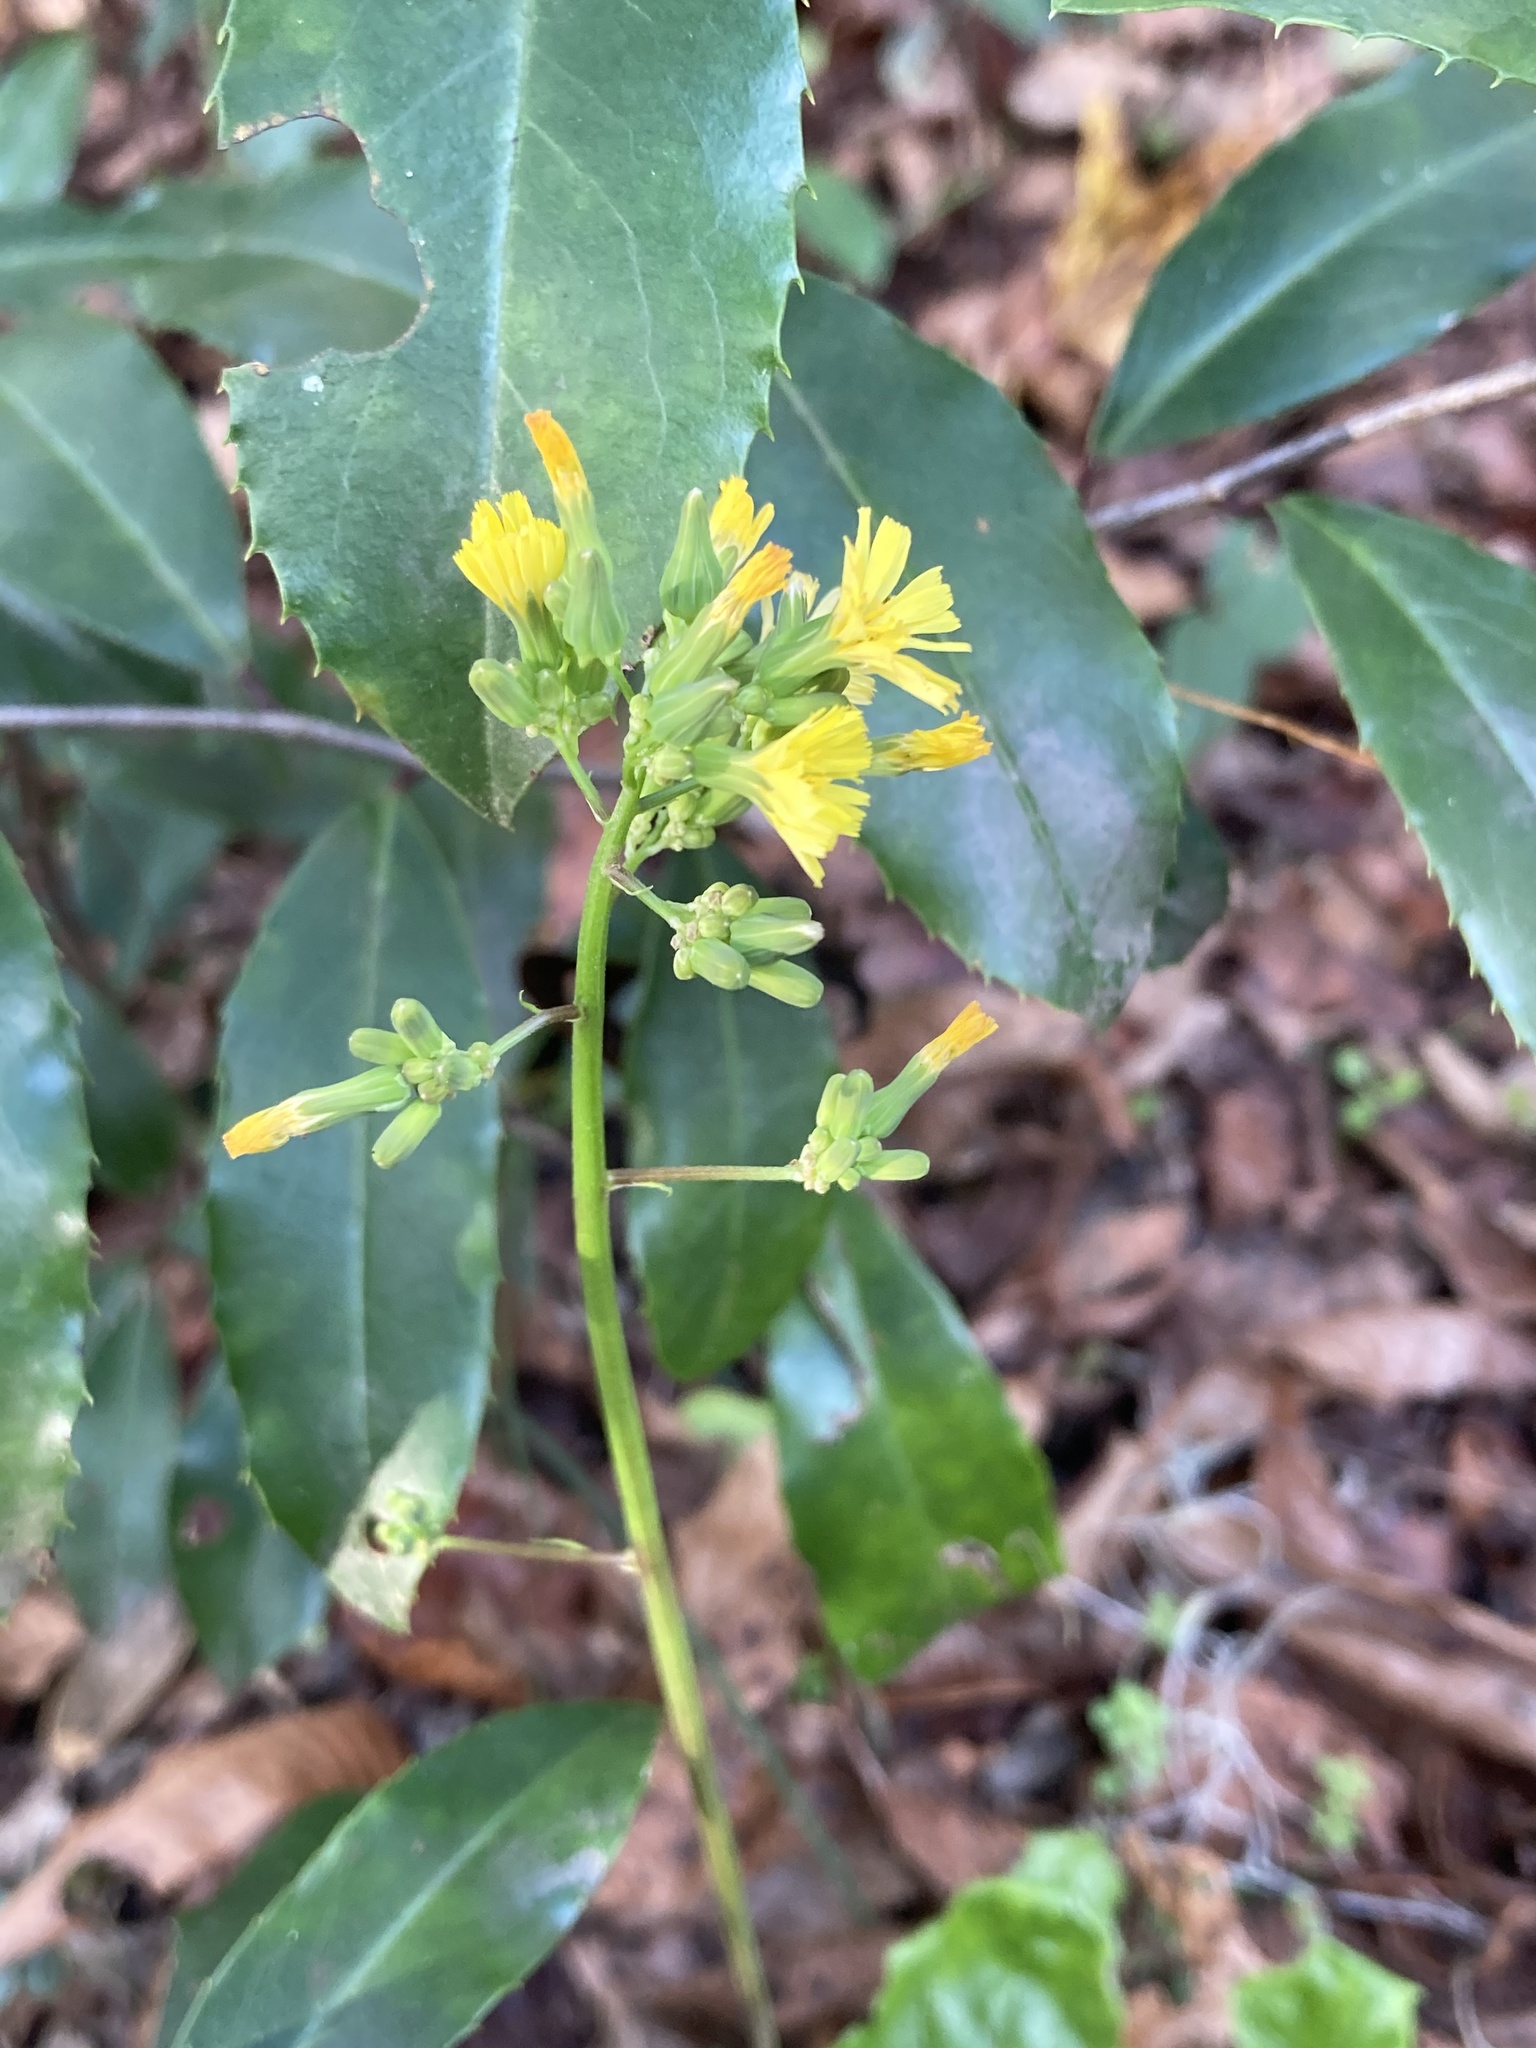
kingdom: Plantae
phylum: Tracheophyta
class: Magnoliopsida
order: Asterales
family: Asteraceae
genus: Youngia
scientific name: Youngia japonica
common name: Oriental false hawksbeard
